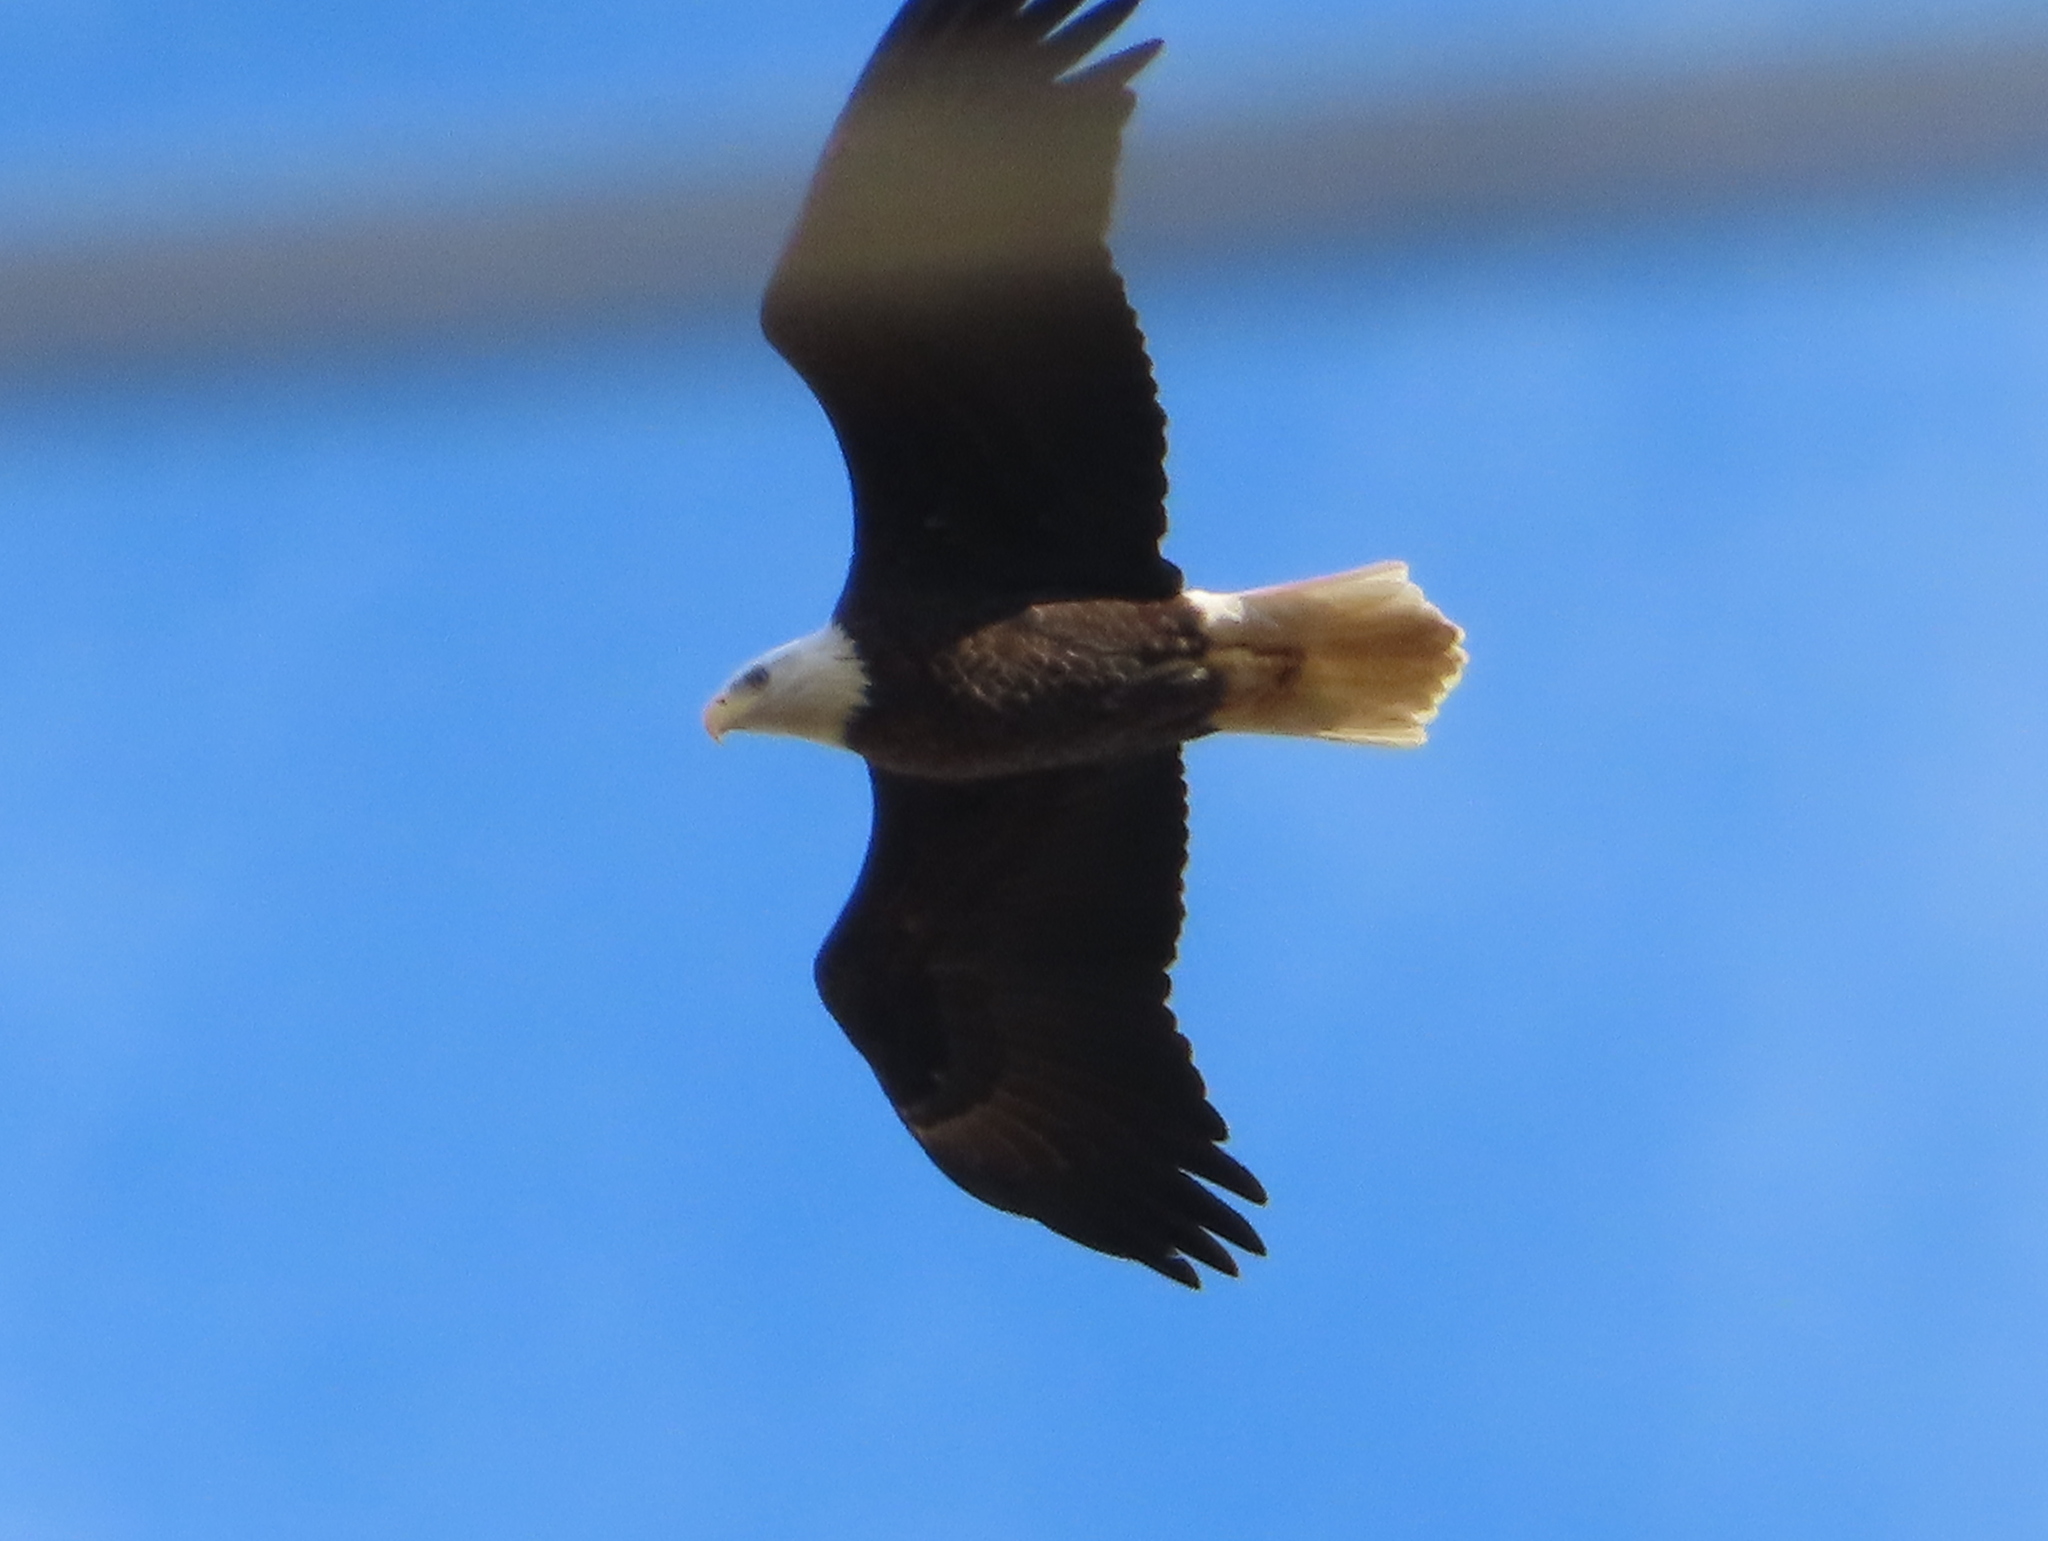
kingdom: Animalia
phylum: Chordata
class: Aves
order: Accipitriformes
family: Accipitridae
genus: Haliaeetus
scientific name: Haliaeetus leucocephalus
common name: Bald eagle
